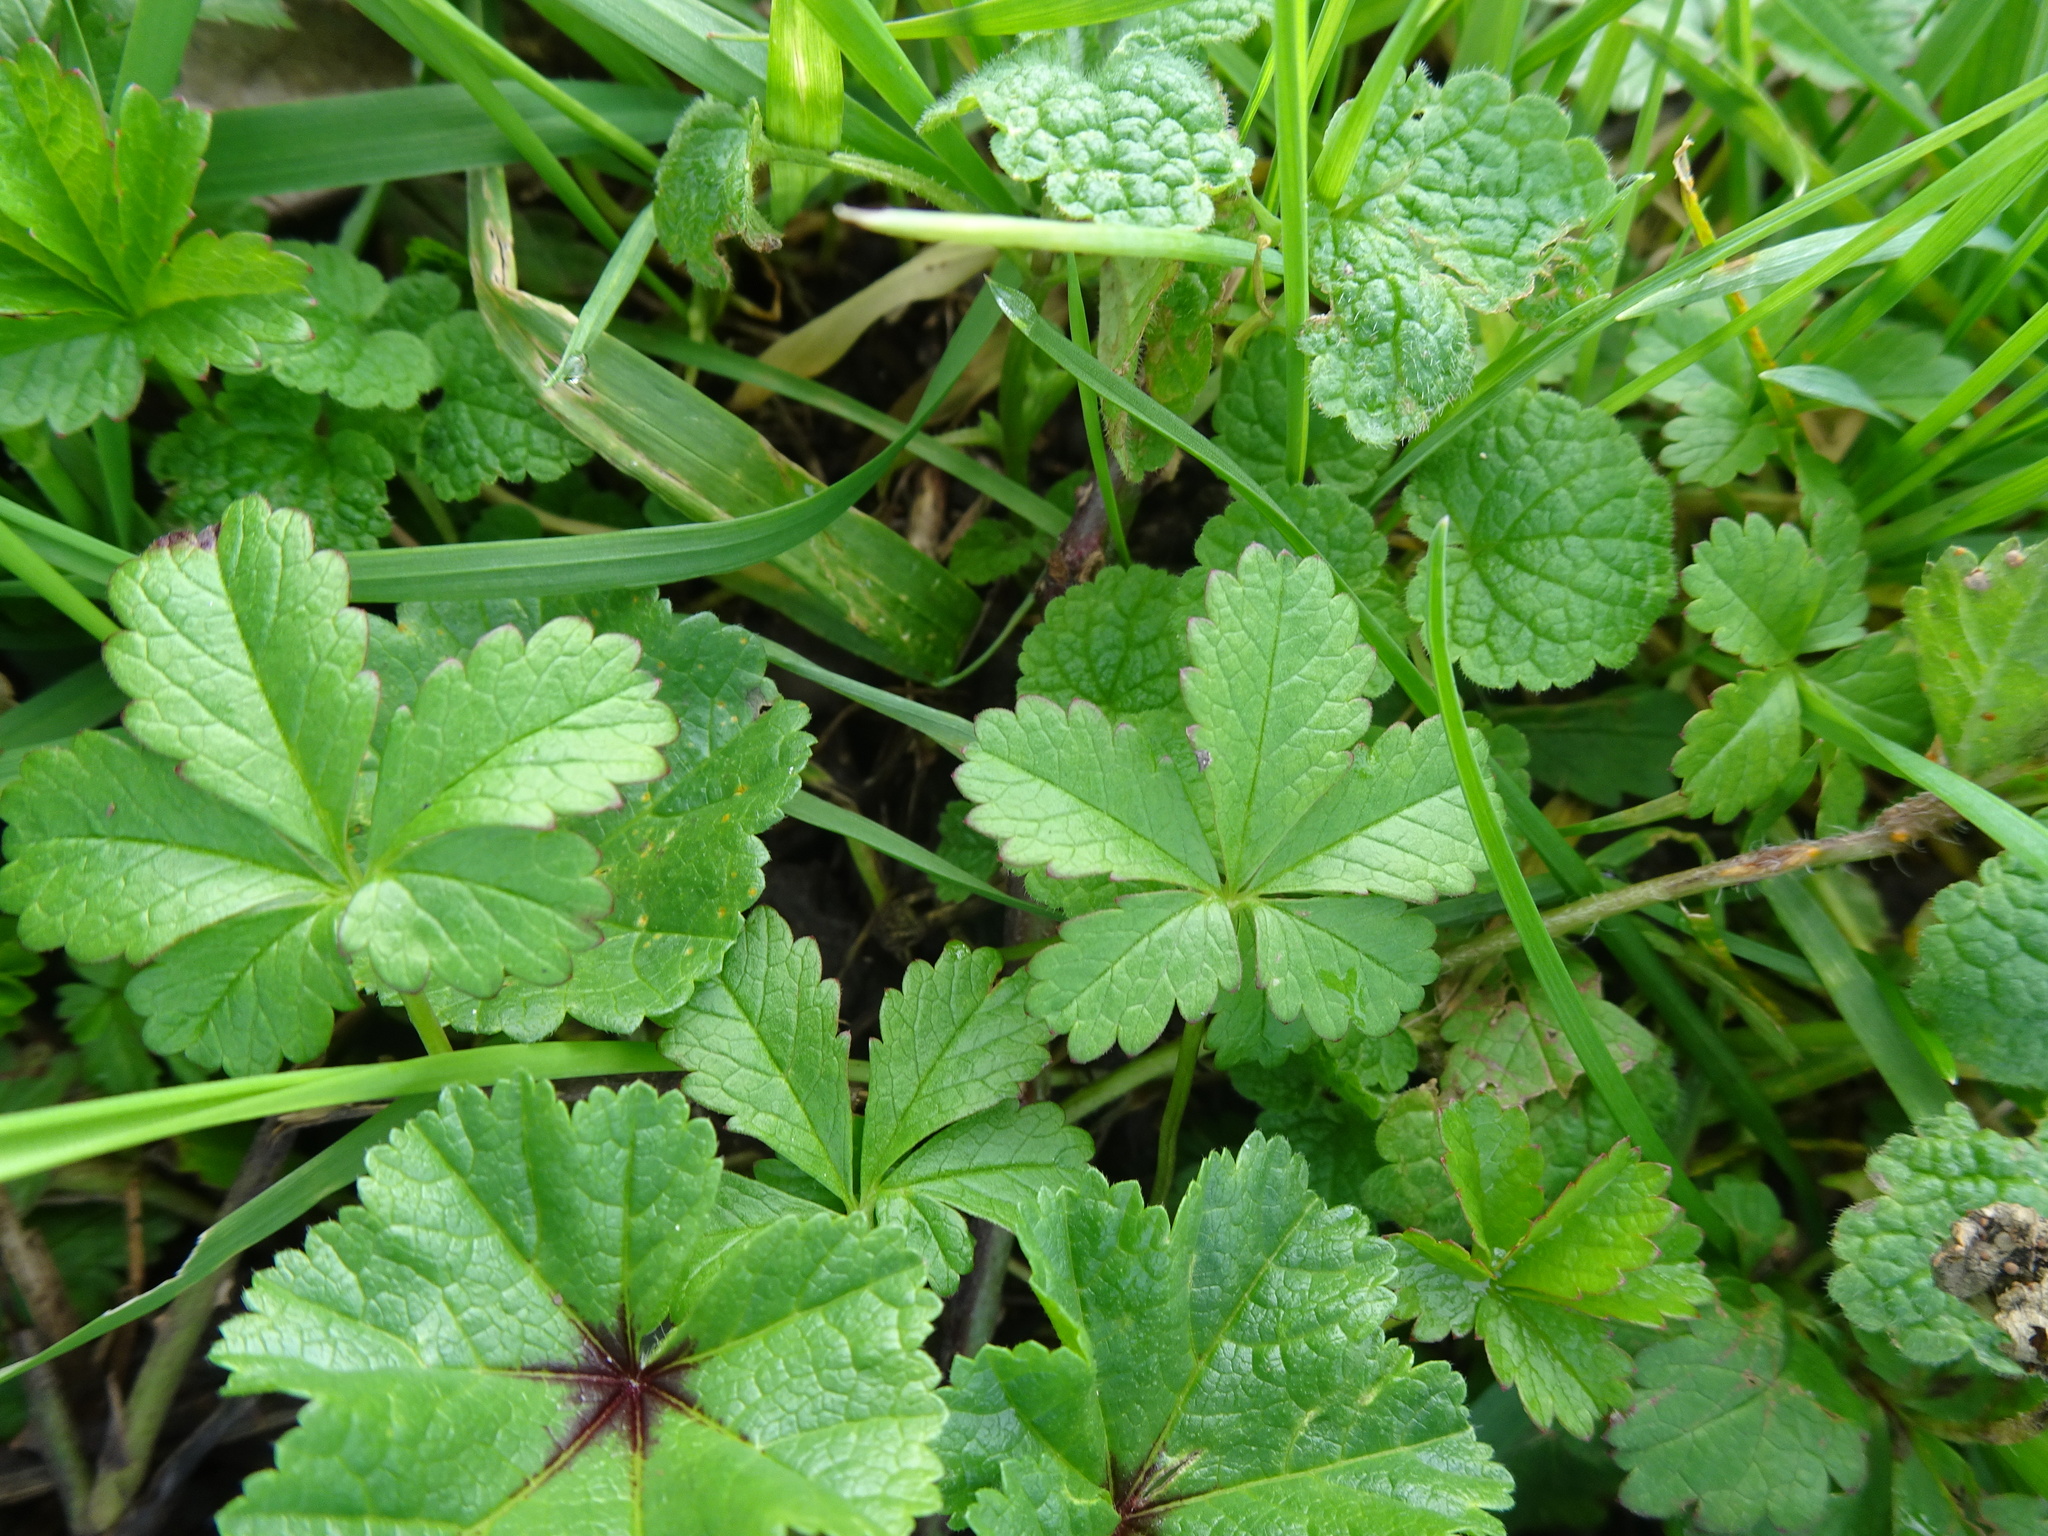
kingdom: Plantae
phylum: Tracheophyta
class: Magnoliopsida
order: Rosales
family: Rosaceae
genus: Potentilla
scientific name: Potentilla reptans
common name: Creeping cinquefoil
